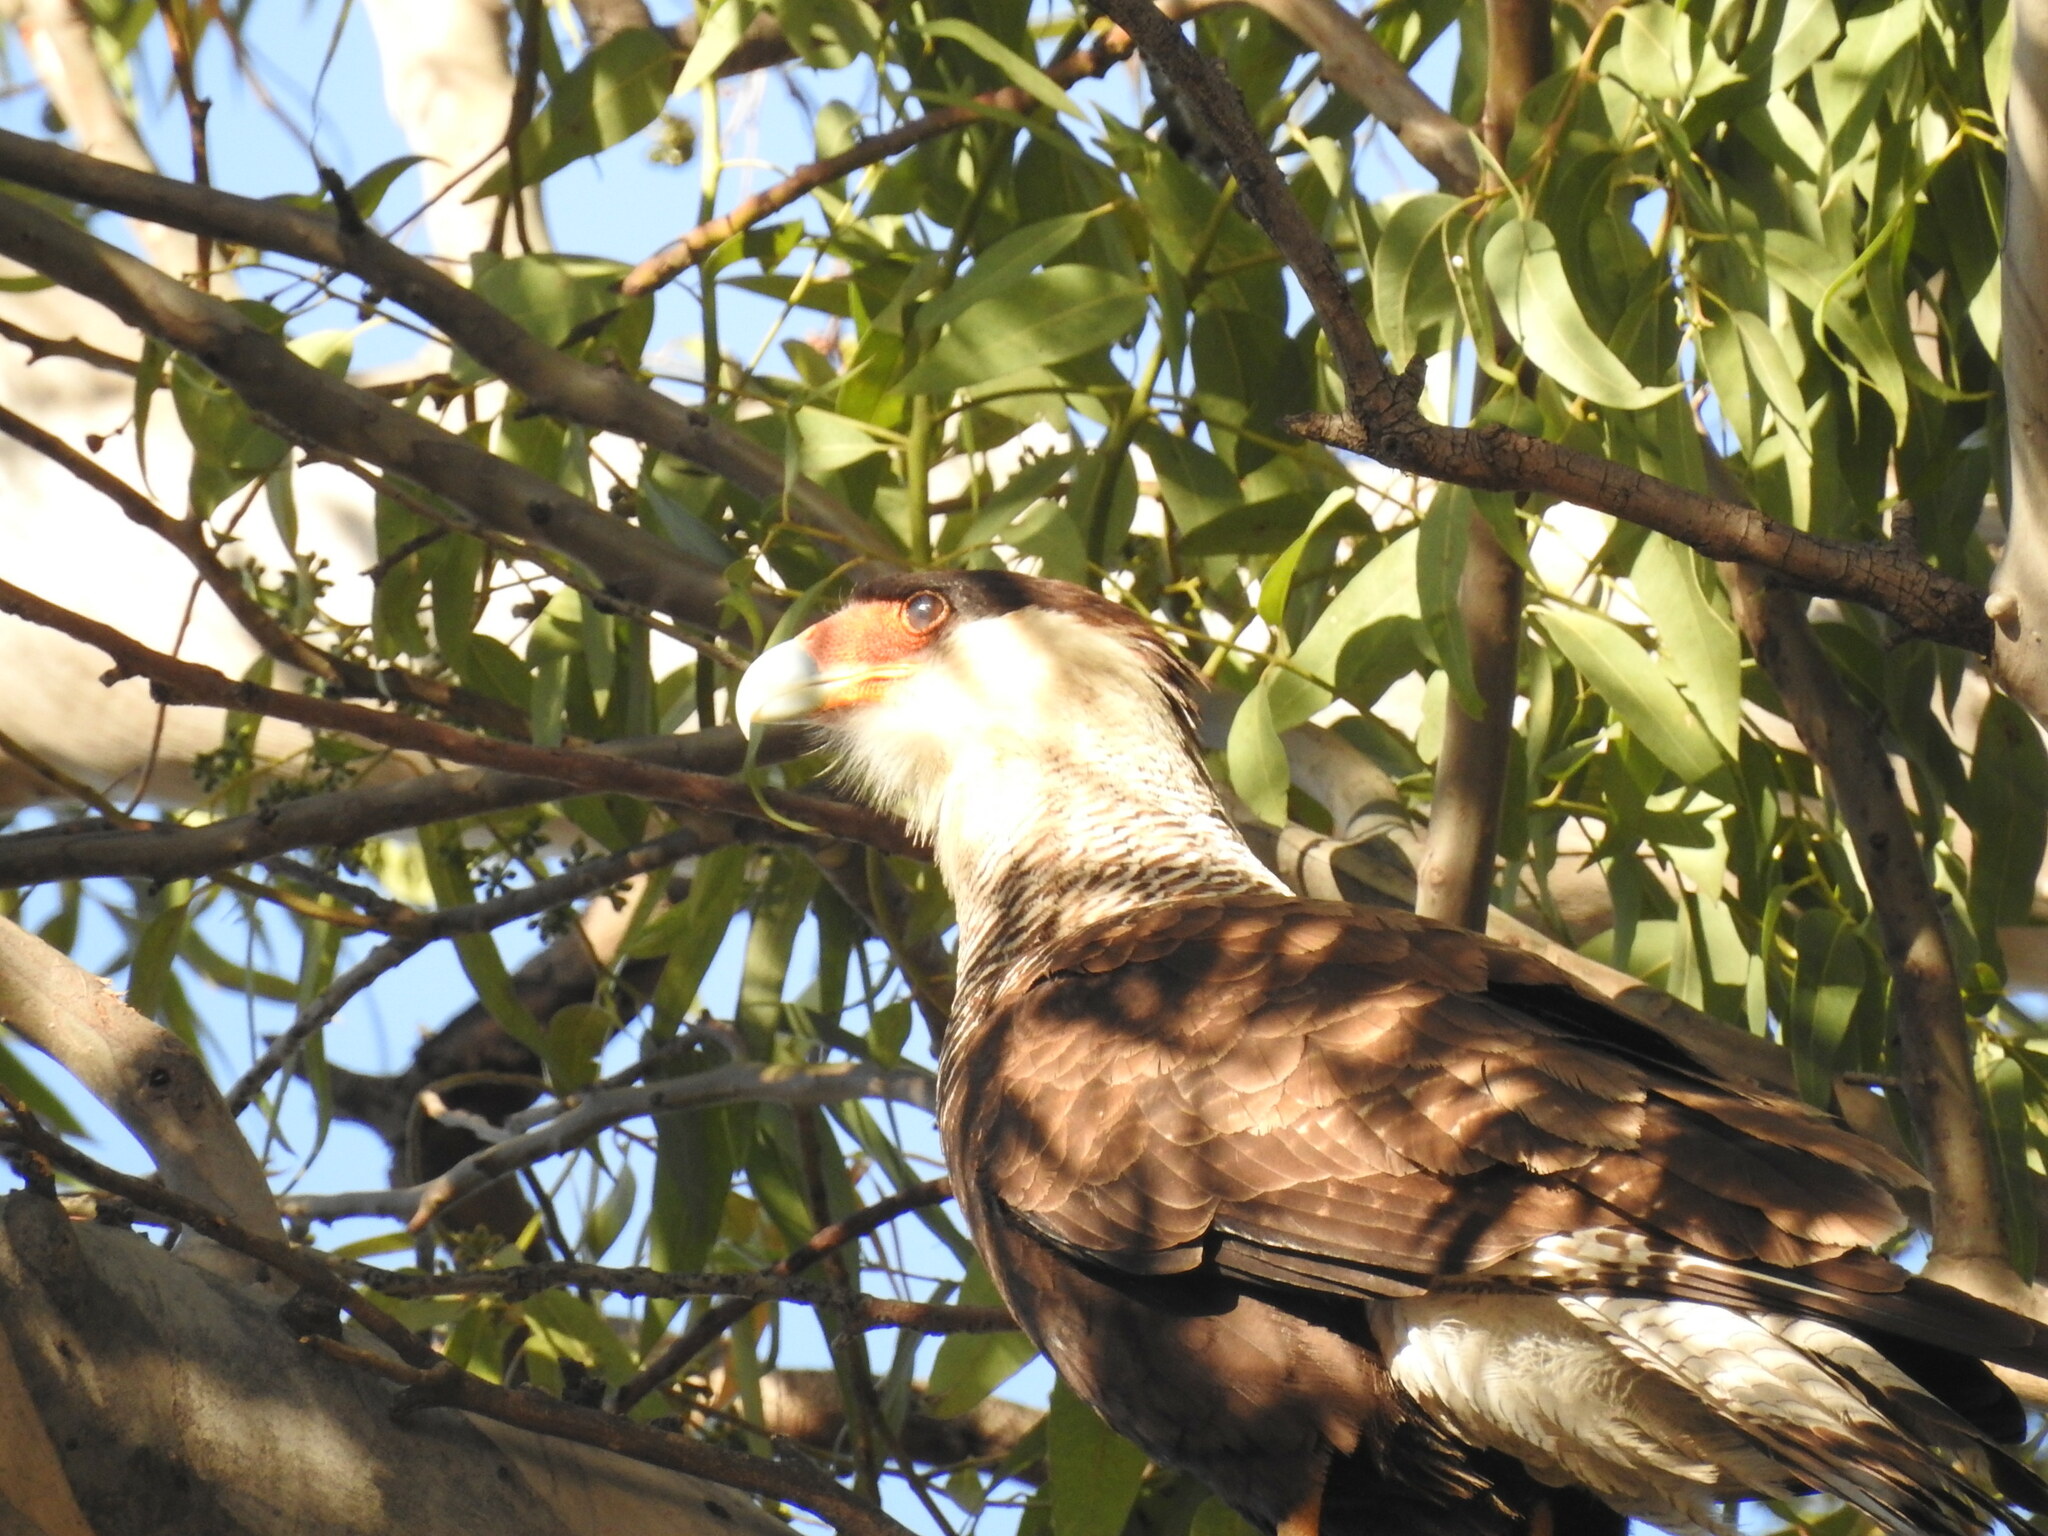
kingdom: Animalia
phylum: Chordata
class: Aves
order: Falconiformes
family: Falconidae
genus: Caracara
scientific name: Caracara plancus
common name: Southern caracara
